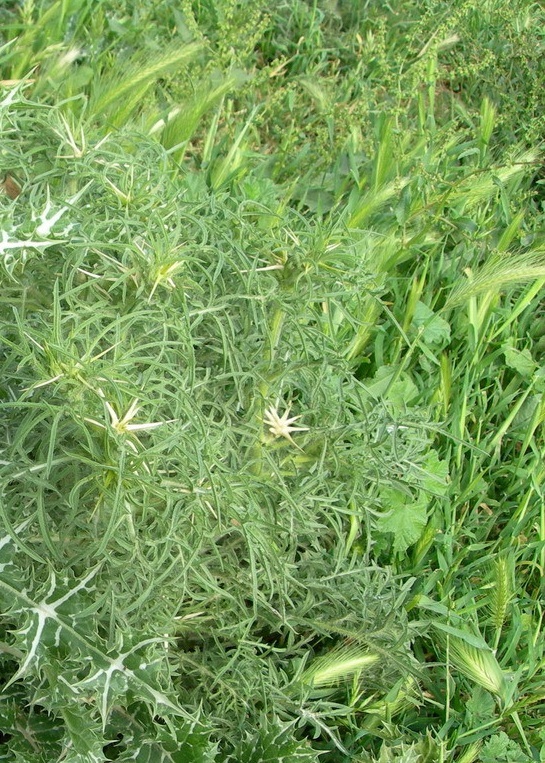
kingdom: Plantae
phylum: Tracheophyta
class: Magnoliopsida
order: Asterales
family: Asteraceae
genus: Centaurea
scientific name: Centaurea calcitrapa
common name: Red star-thistle
